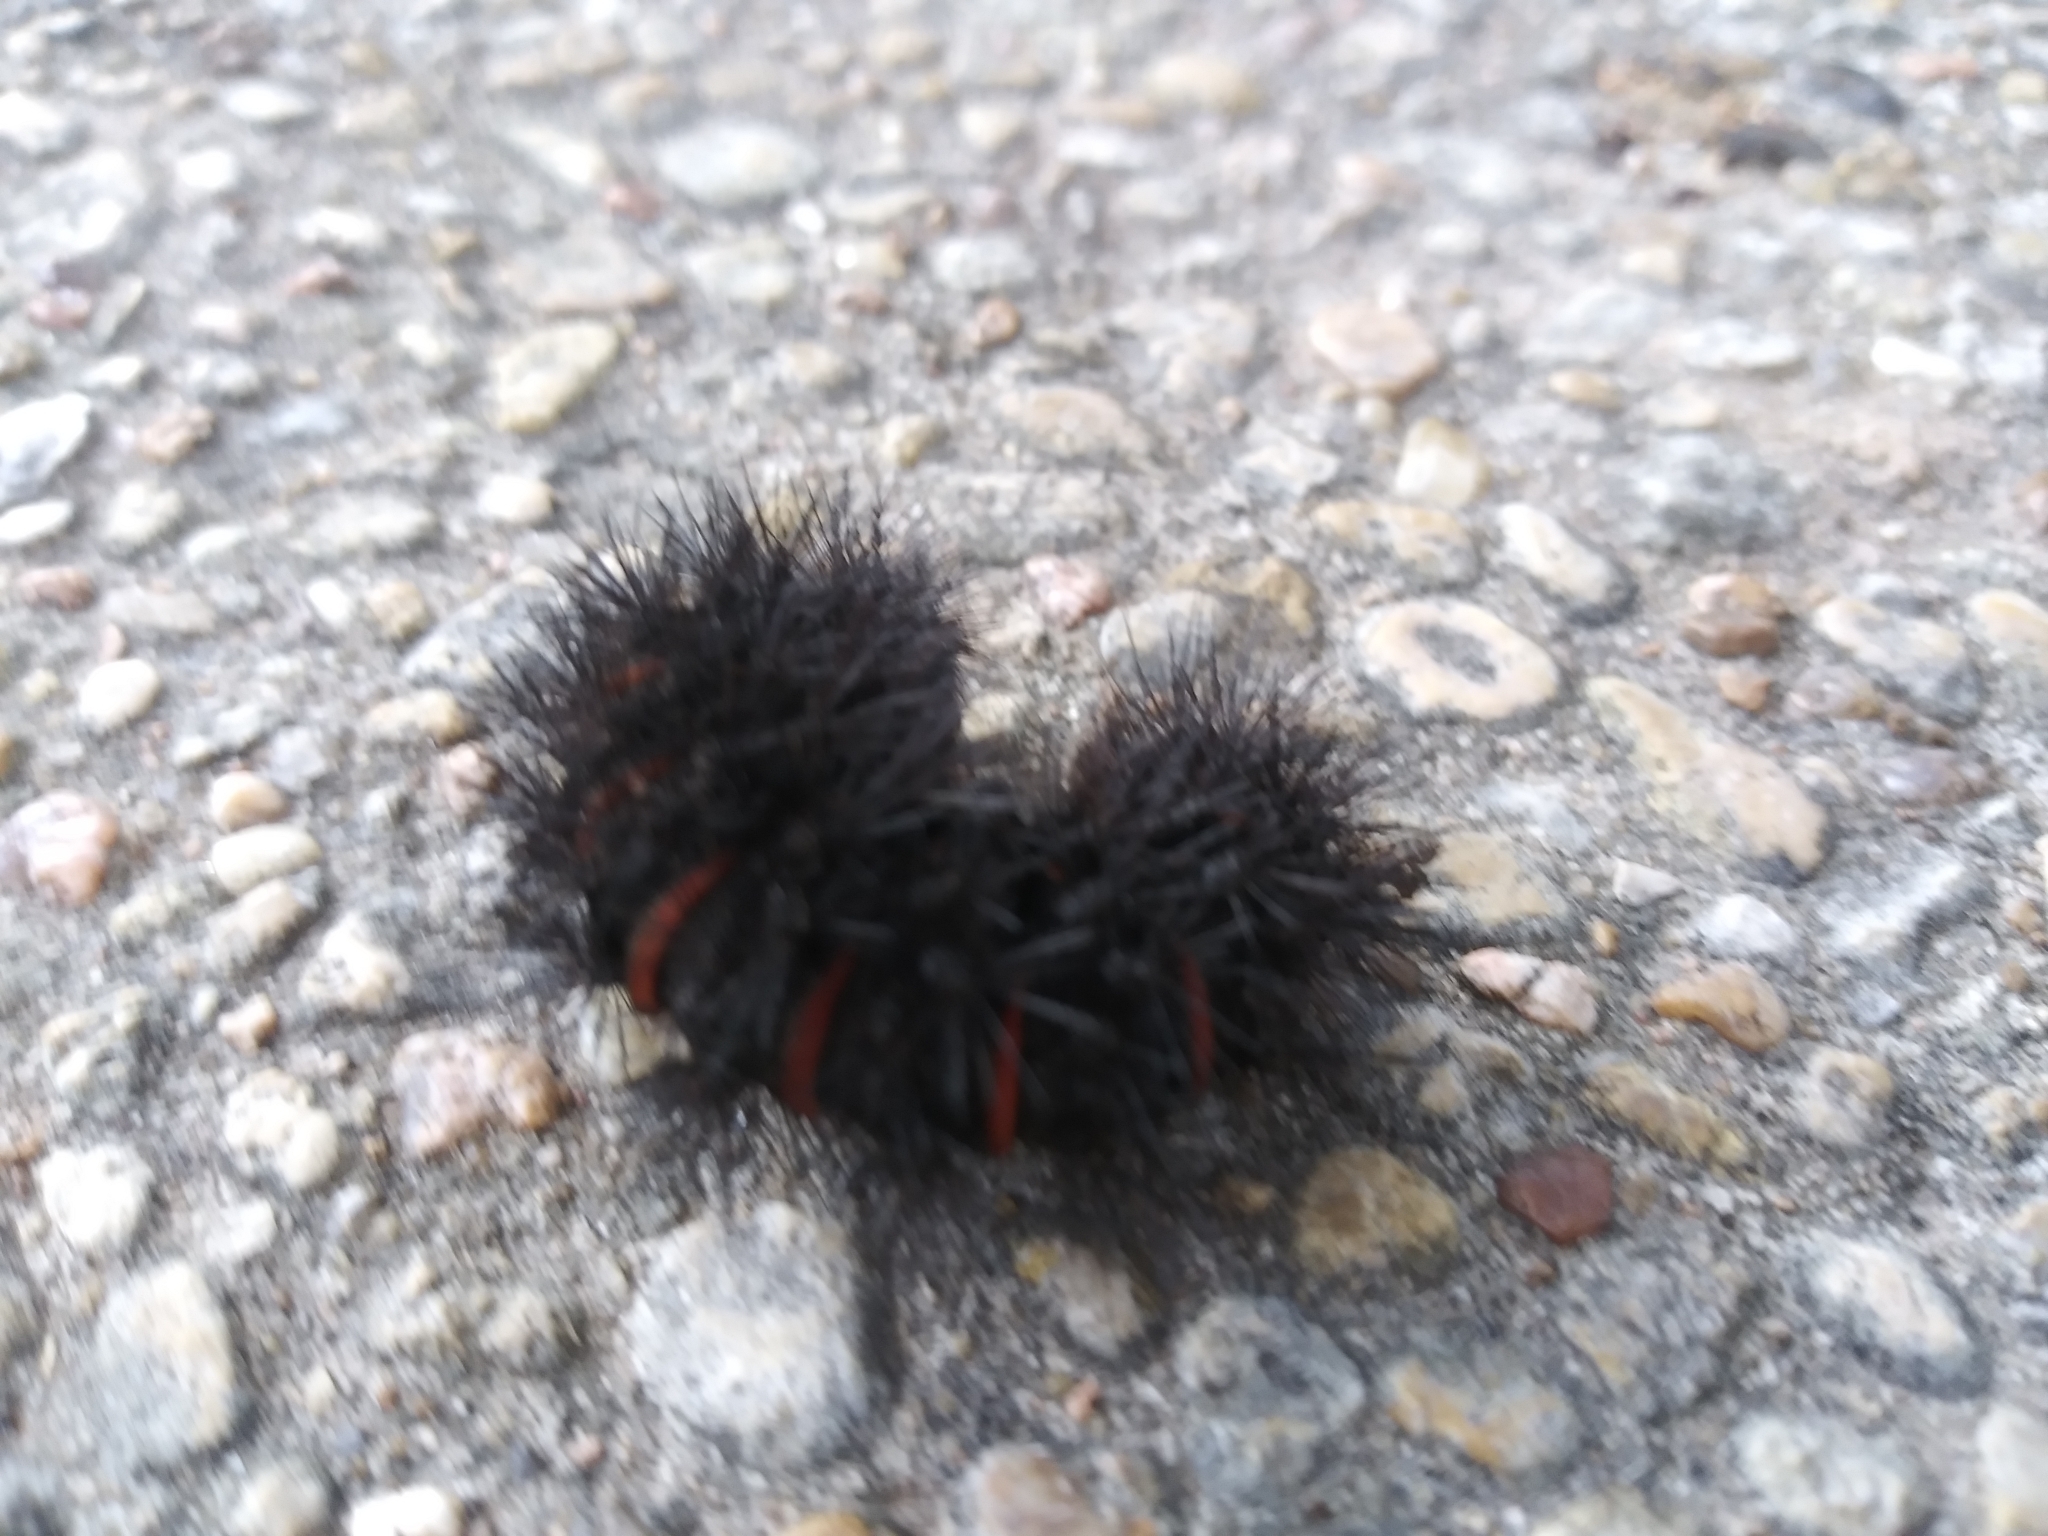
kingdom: Animalia
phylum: Arthropoda
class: Insecta
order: Lepidoptera
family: Erebidae
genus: Hypercompe
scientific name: Hypercompe scribonia
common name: Giant leopard moth
